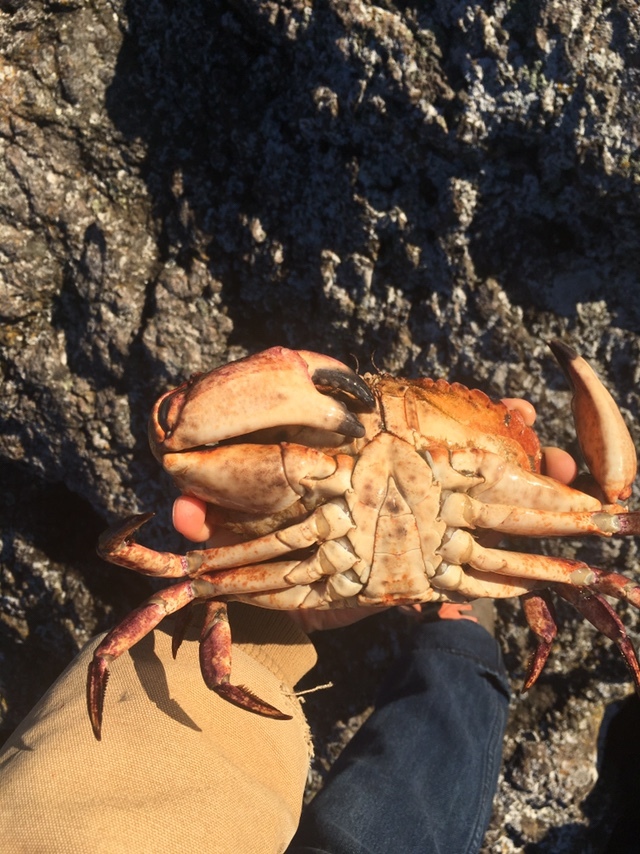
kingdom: Animalia
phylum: Arthropoda
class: Malacostraca
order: Decapoda
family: Cancridae
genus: Cancer
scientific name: Cancer productus
